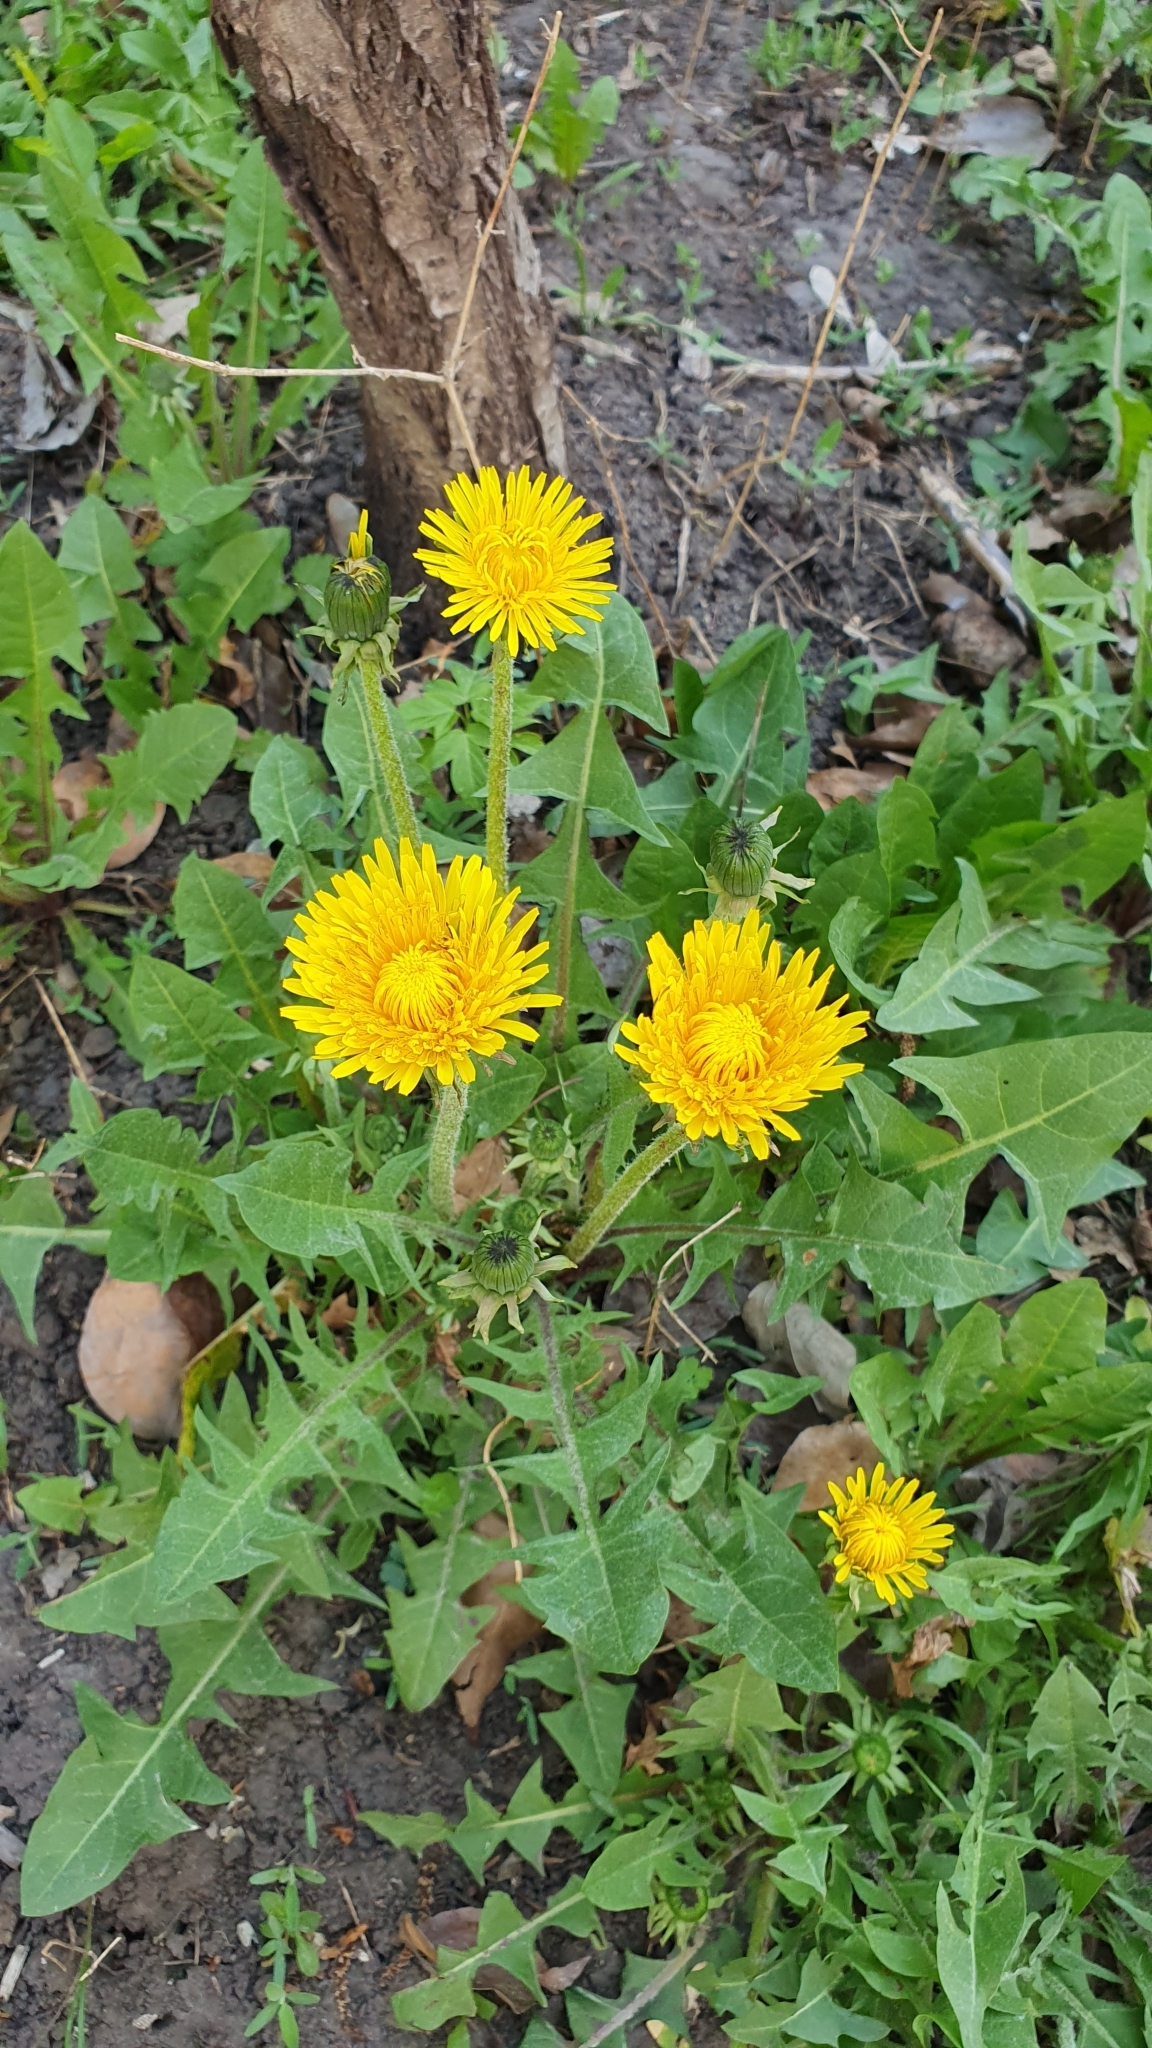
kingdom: Plantae
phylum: Tracheophyta
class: Magnoliopsida
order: Asterales
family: Asteraceae
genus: Taraxacum
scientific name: Taraxacum officinale
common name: Common dandelion
